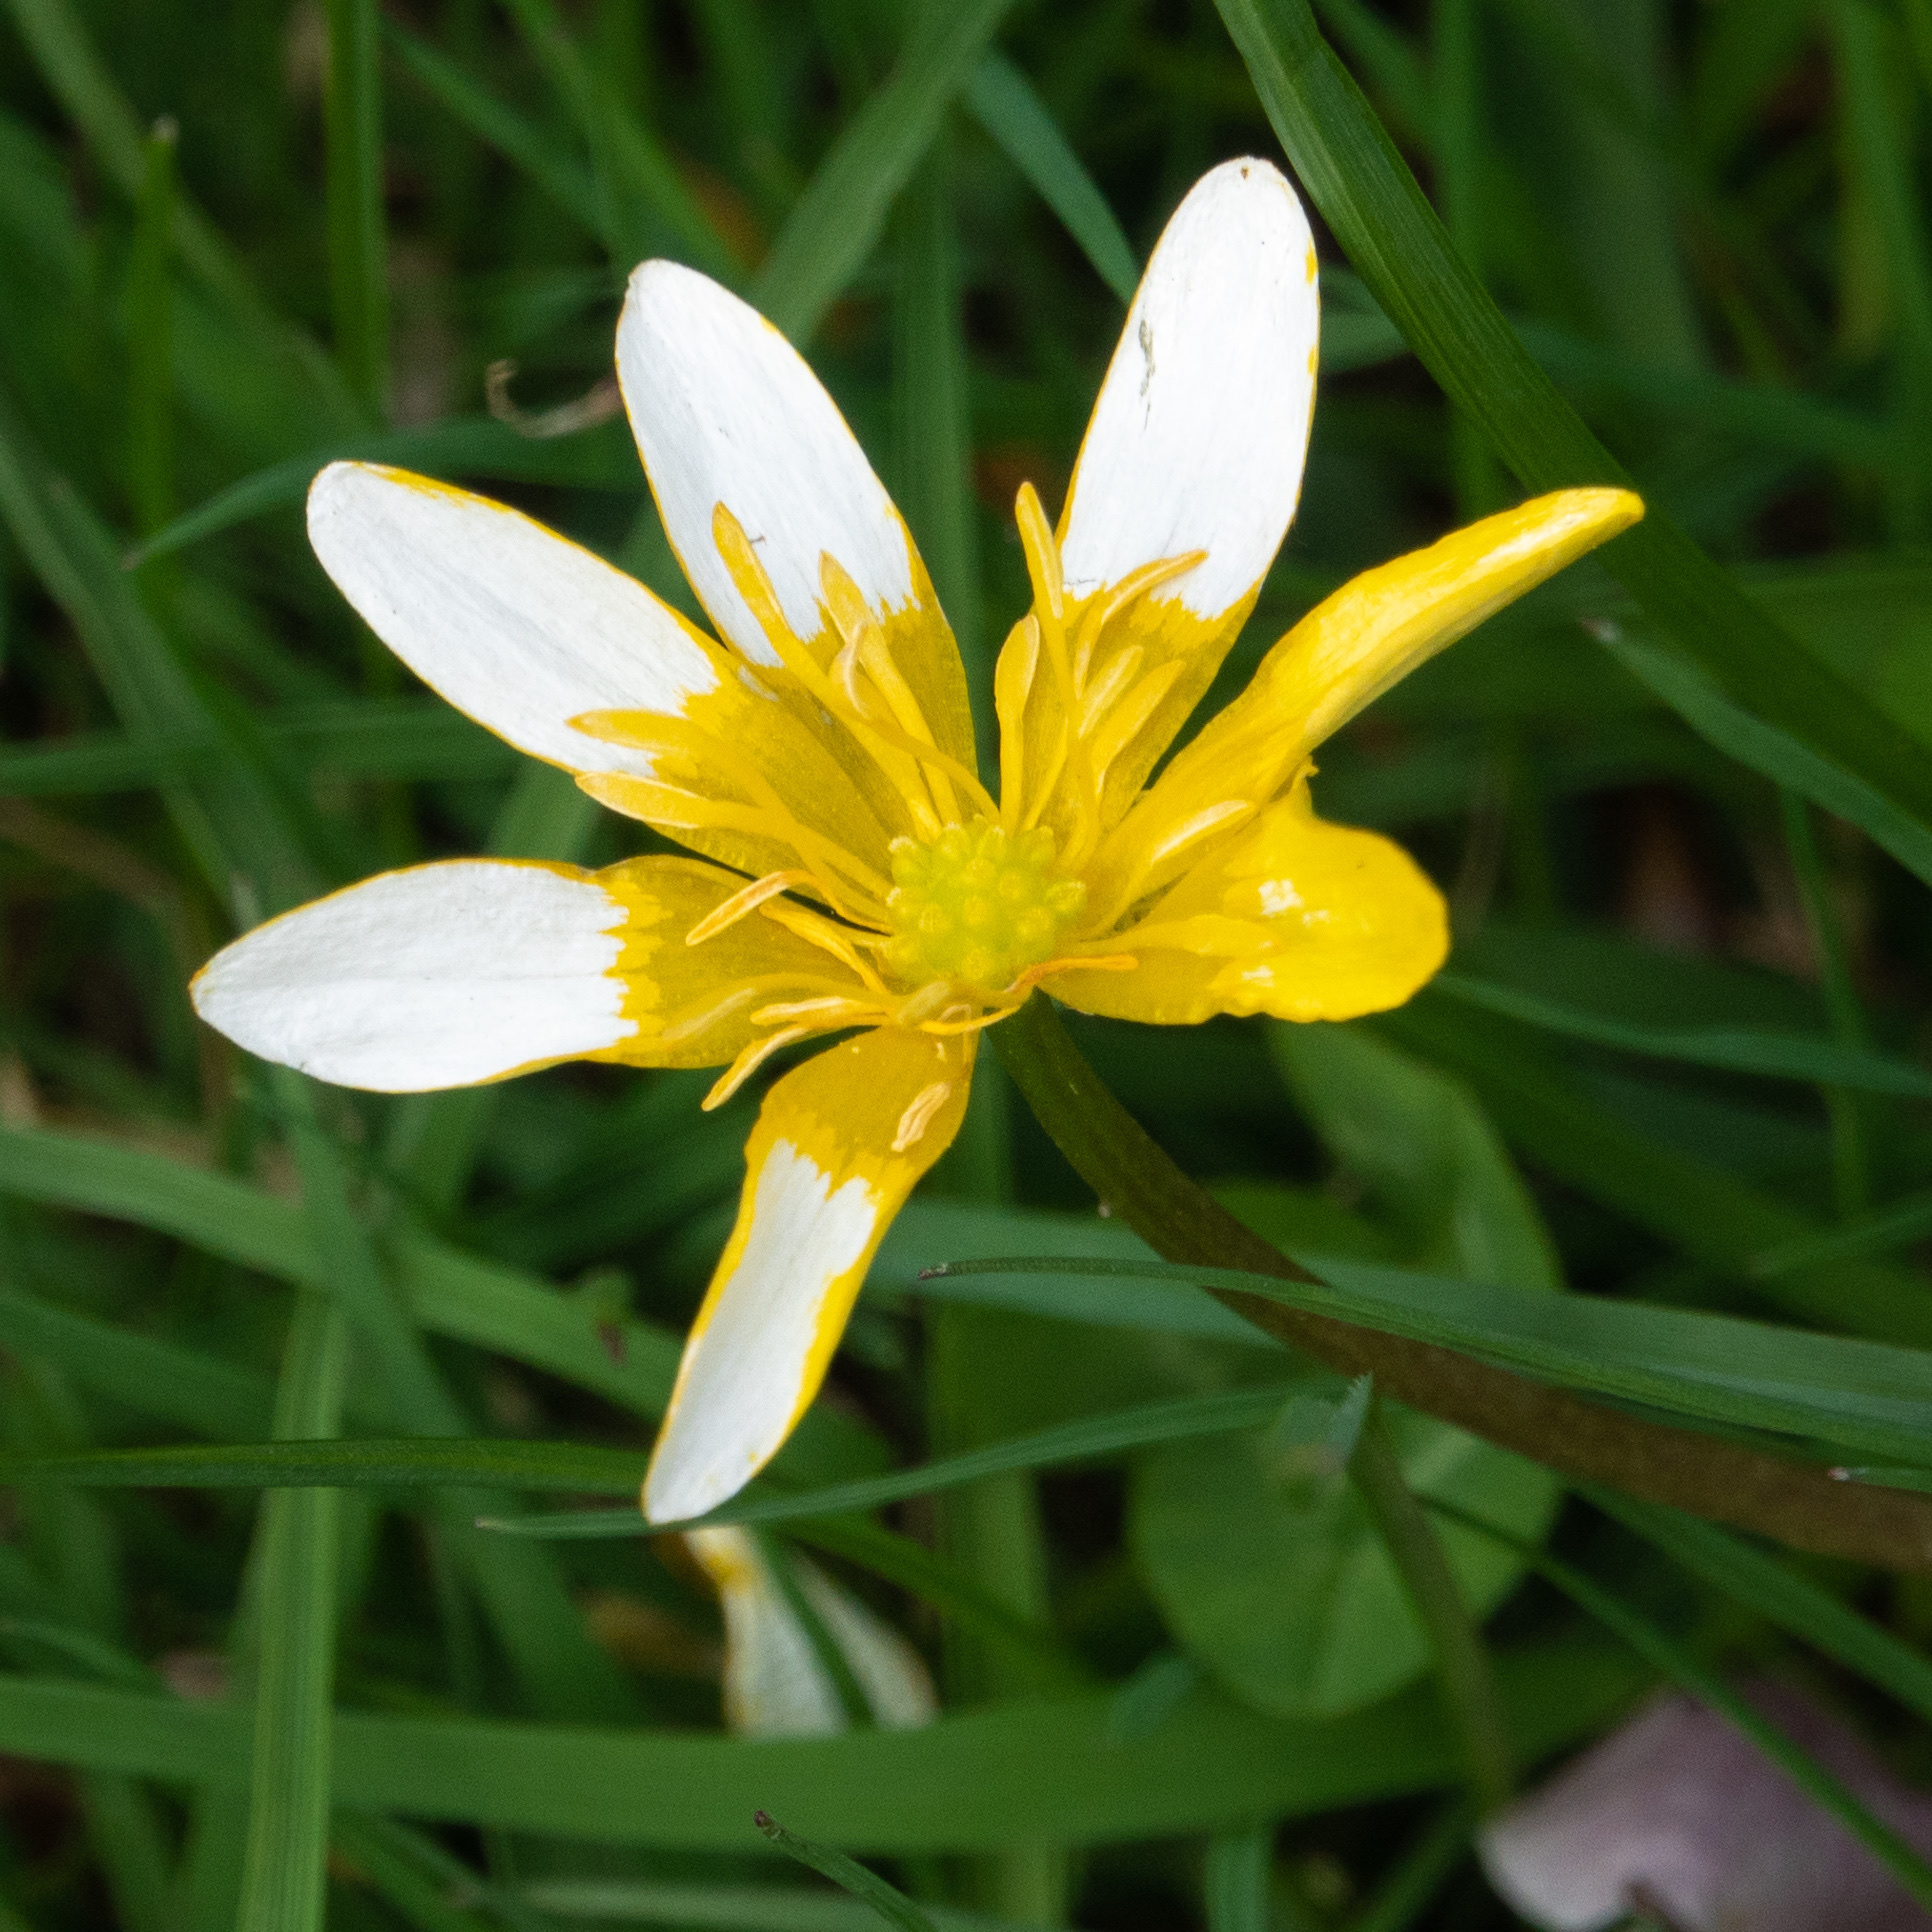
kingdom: Plantae
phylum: Tracheophyta
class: Magnoliopsida
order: Ranunculales
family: Ranunculaceae
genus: Ficaria
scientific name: Ficaria verna
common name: Lesser celandine
